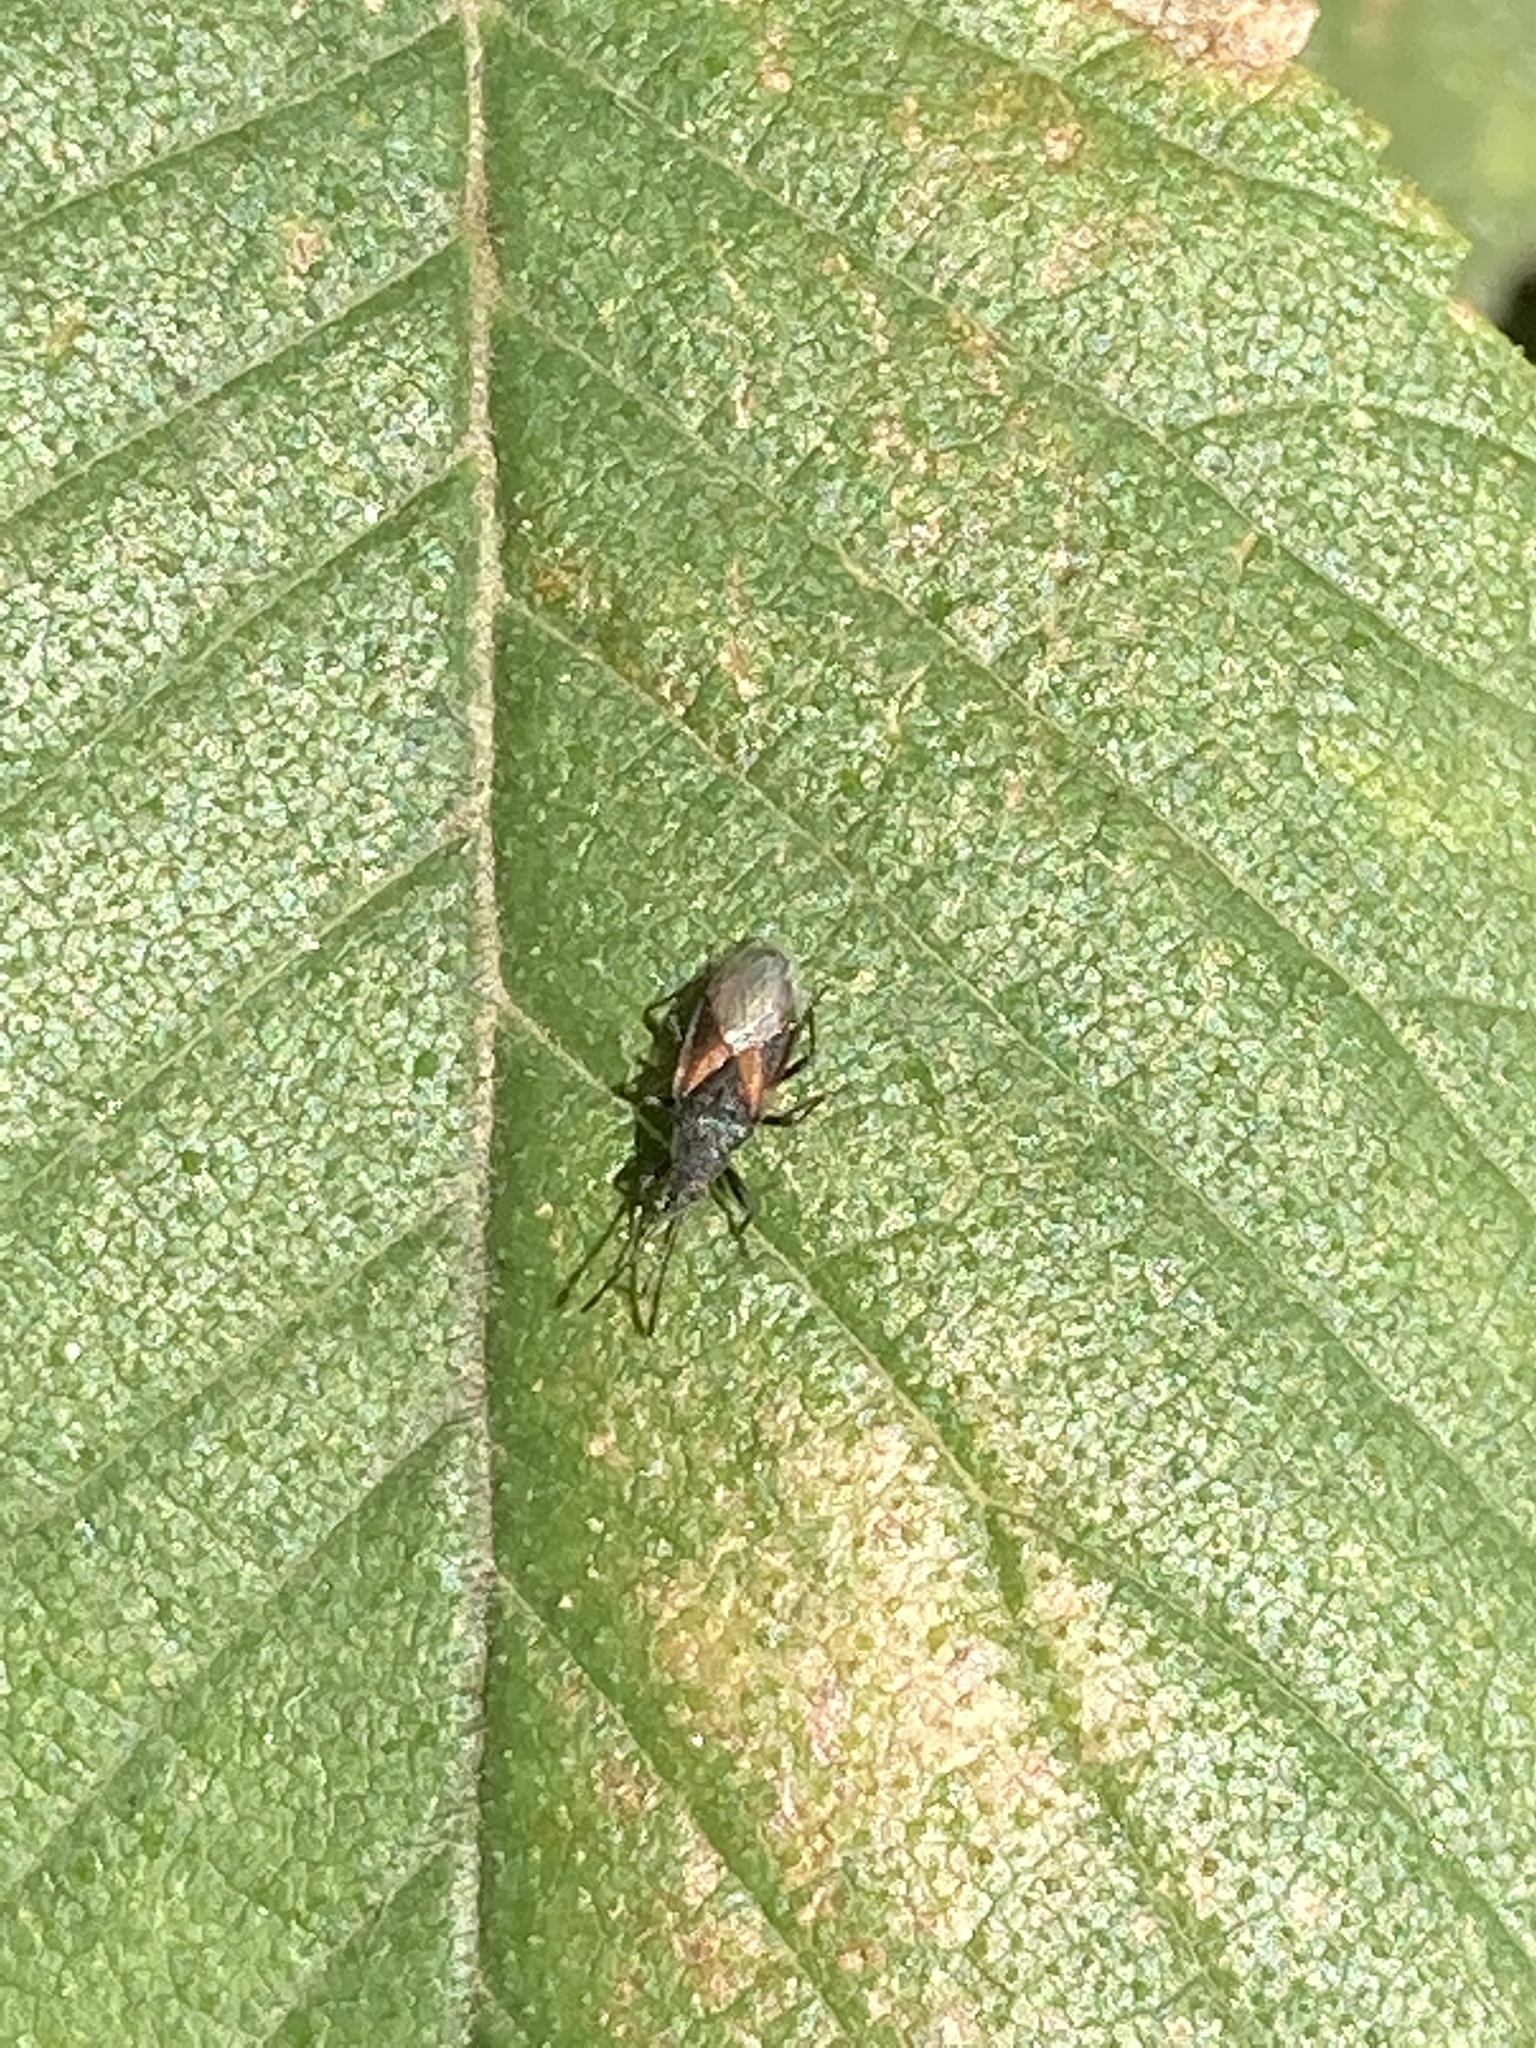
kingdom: Animalia
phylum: Arthropoda
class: Insecta
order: Hemiptera
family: Oxycarenidae
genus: Oxycarenus
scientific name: Oxycarenus lavaterae
